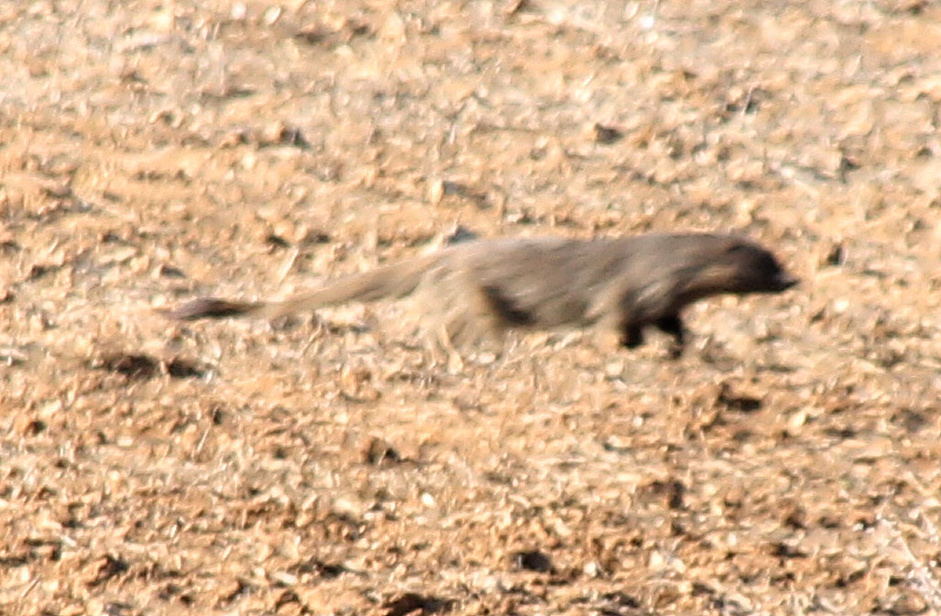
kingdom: Animalia
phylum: Chordata
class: Mammalia
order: Carnivora
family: Herpestidae
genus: Herpestes
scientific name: Herpestes ichneumon
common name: Egyptian mongoose
